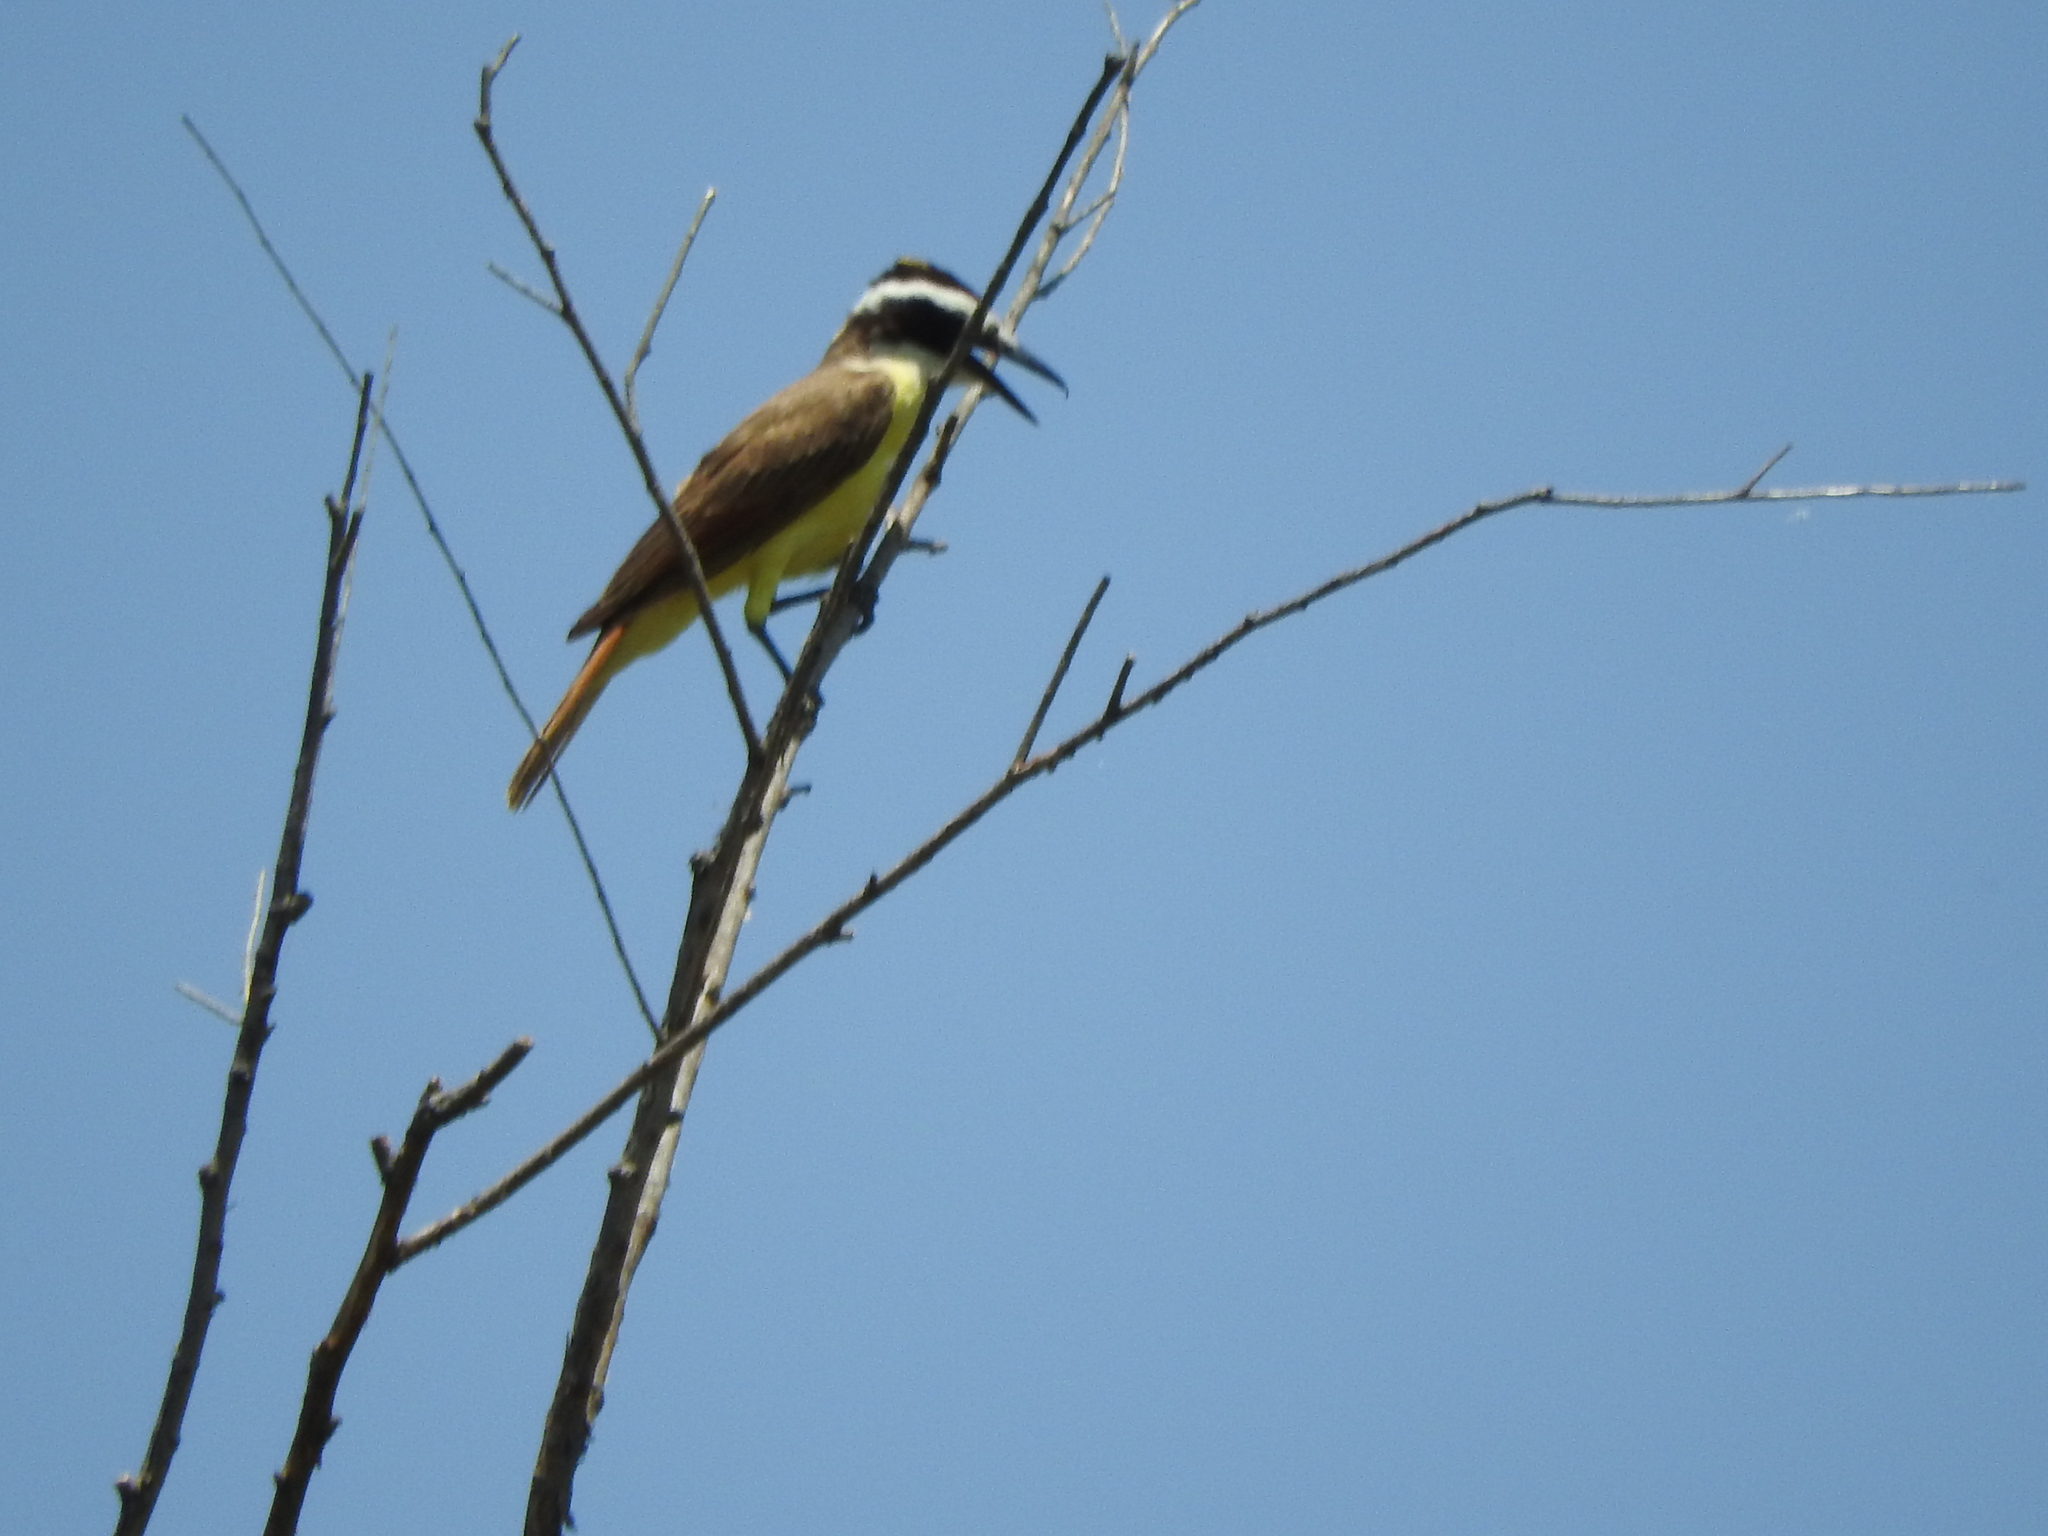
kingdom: Animalia
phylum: Chordata
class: Aves
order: Passeriformes
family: Tyrannidae
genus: Pitangus
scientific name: Pitangus sulphuratus
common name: Great kiskadee
